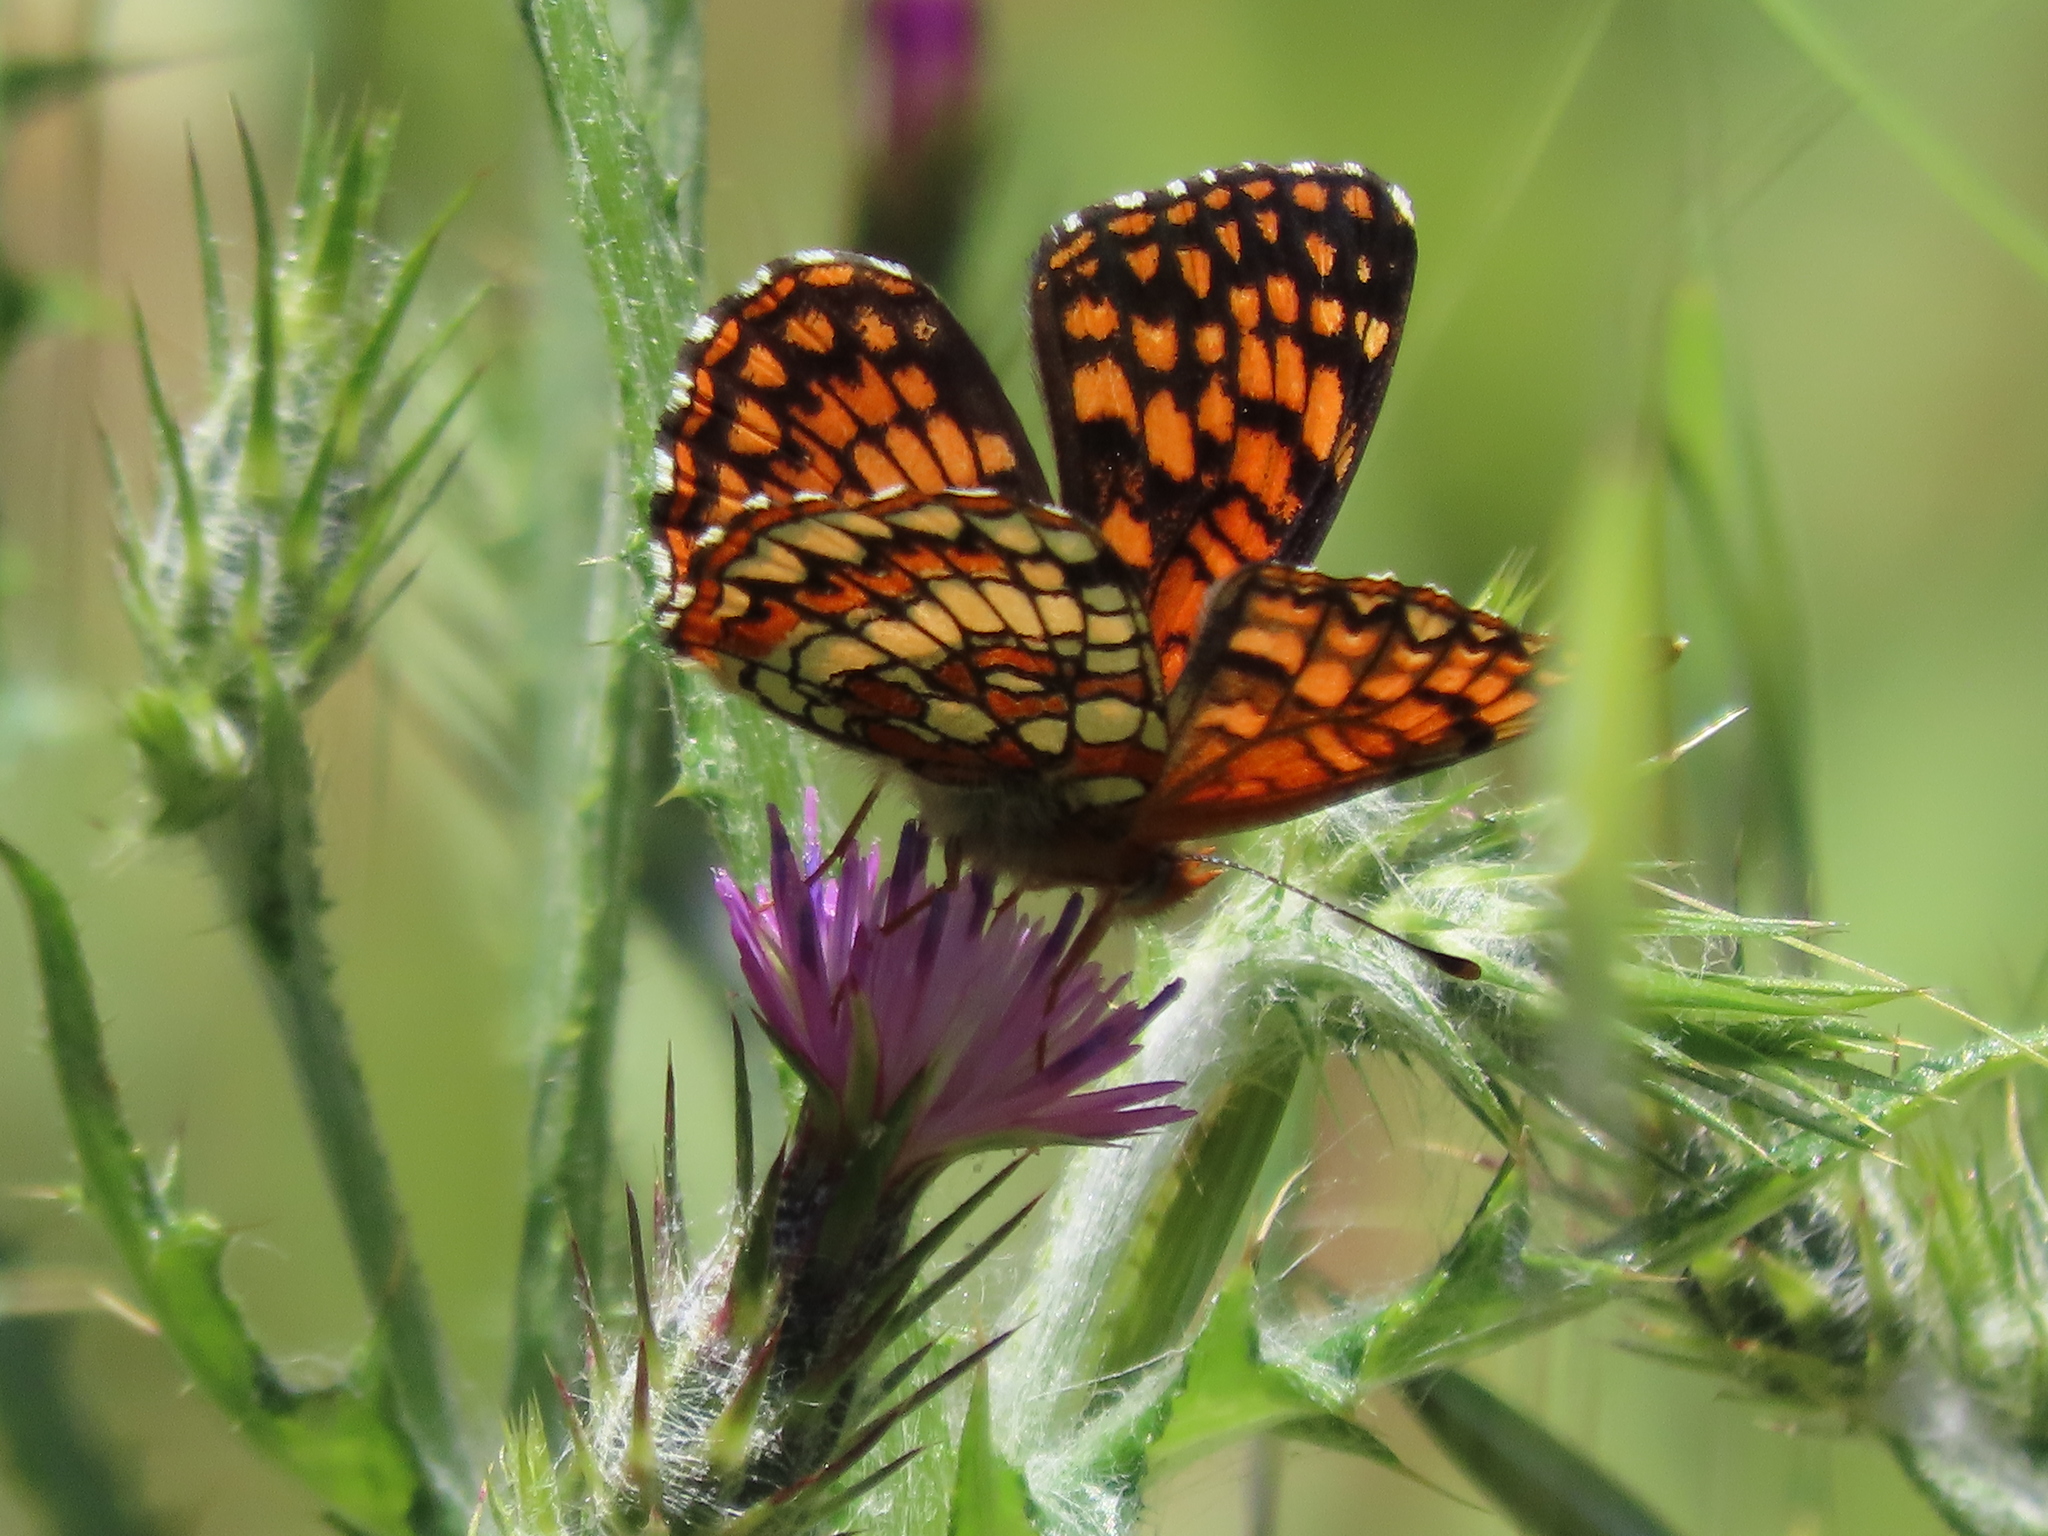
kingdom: Animalia
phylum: Arthropoda
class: Insecta
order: Lepidoptera
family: Nymphalidae
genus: Chlosyne
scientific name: Chlosyne palla
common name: Northern checkerspot
